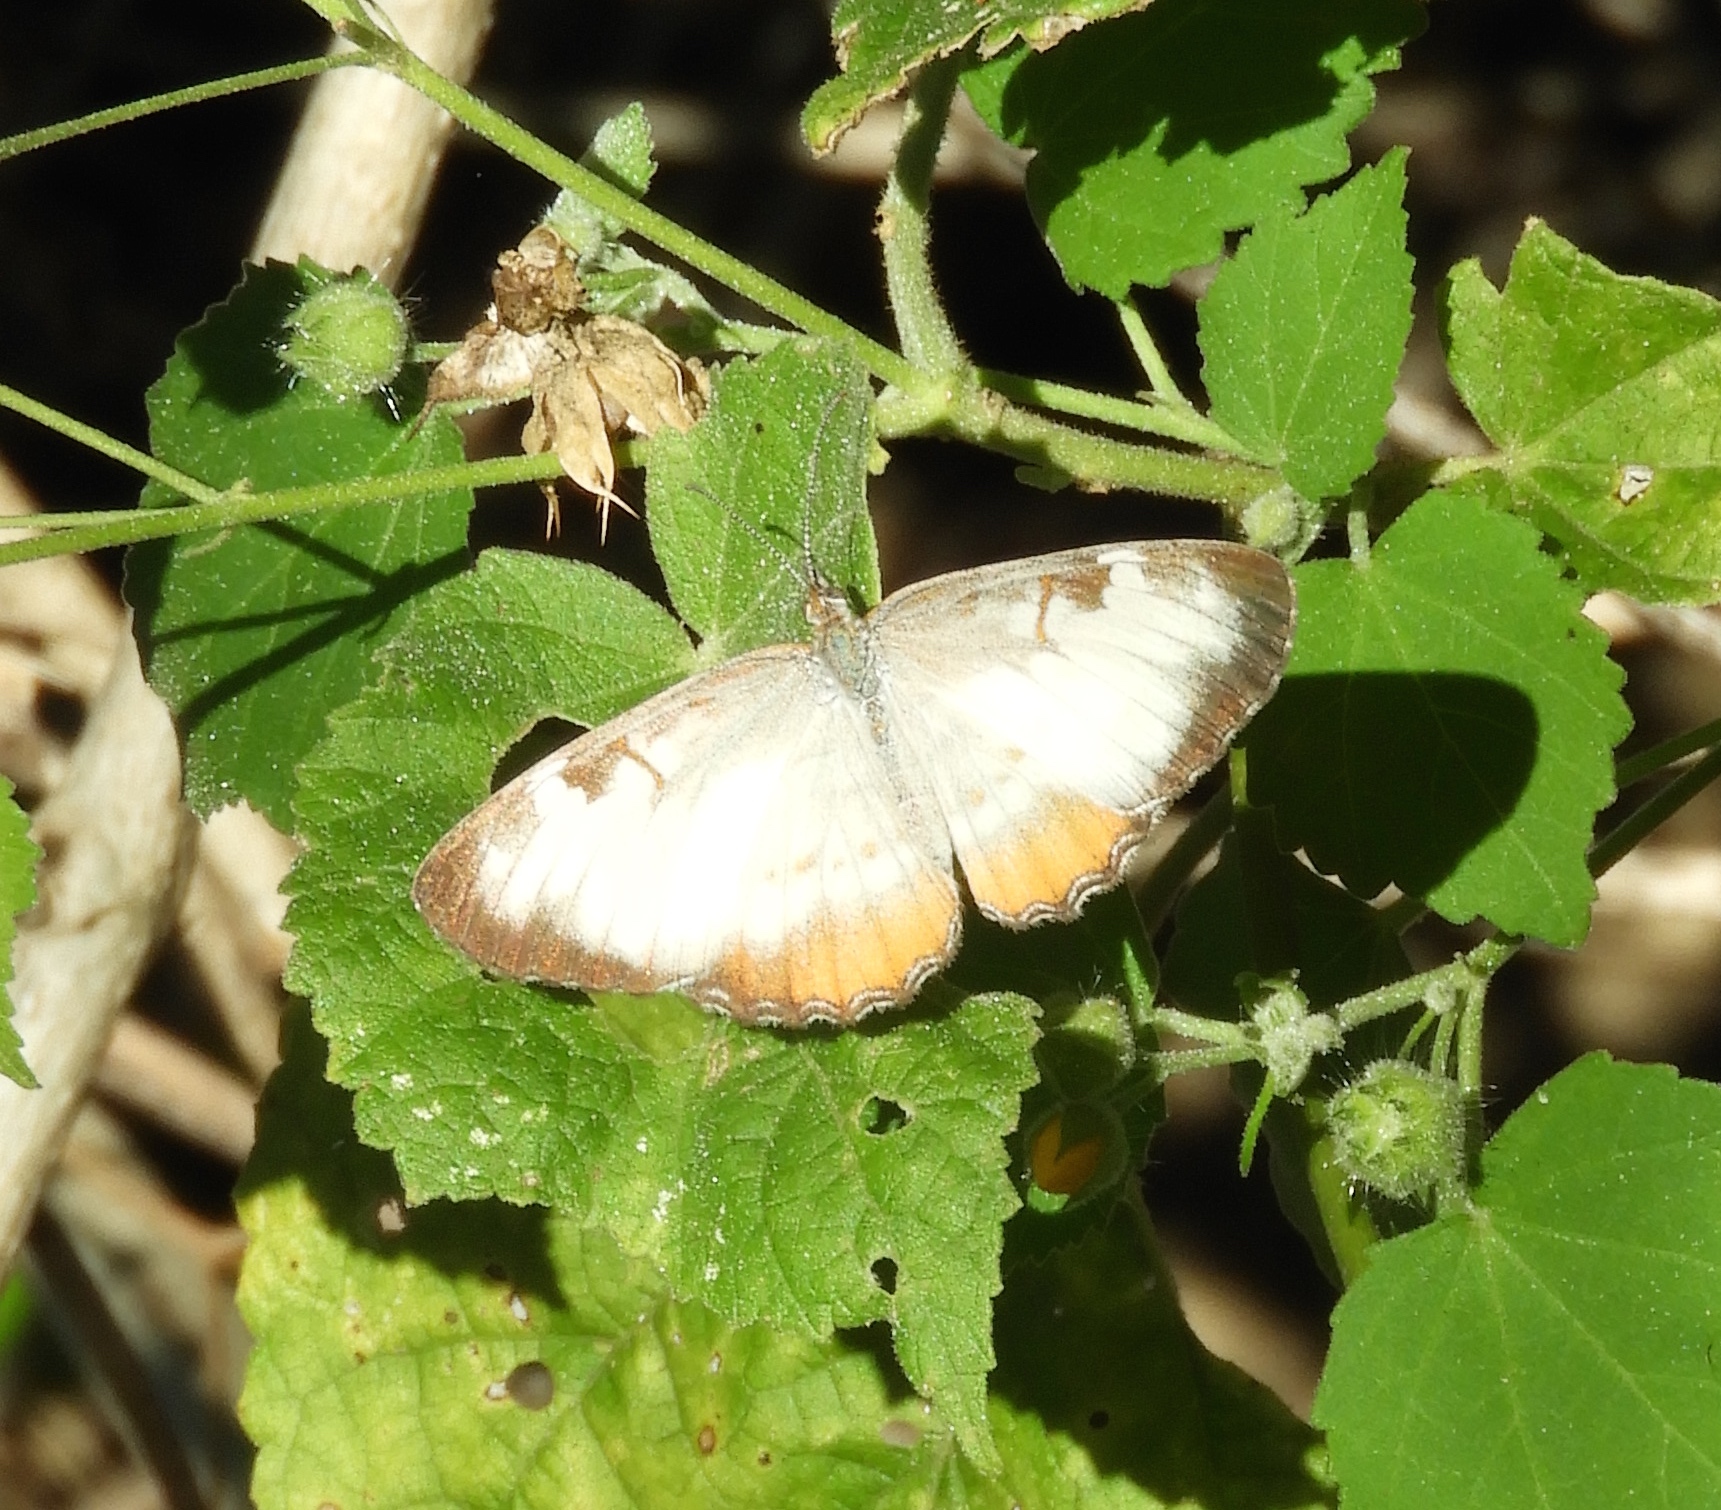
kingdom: Animalia
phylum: Arthropoda
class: Insecta
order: Lepidoptera
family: Nymphalidae
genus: Mestra
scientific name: Mestra amymone
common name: Common mestra
